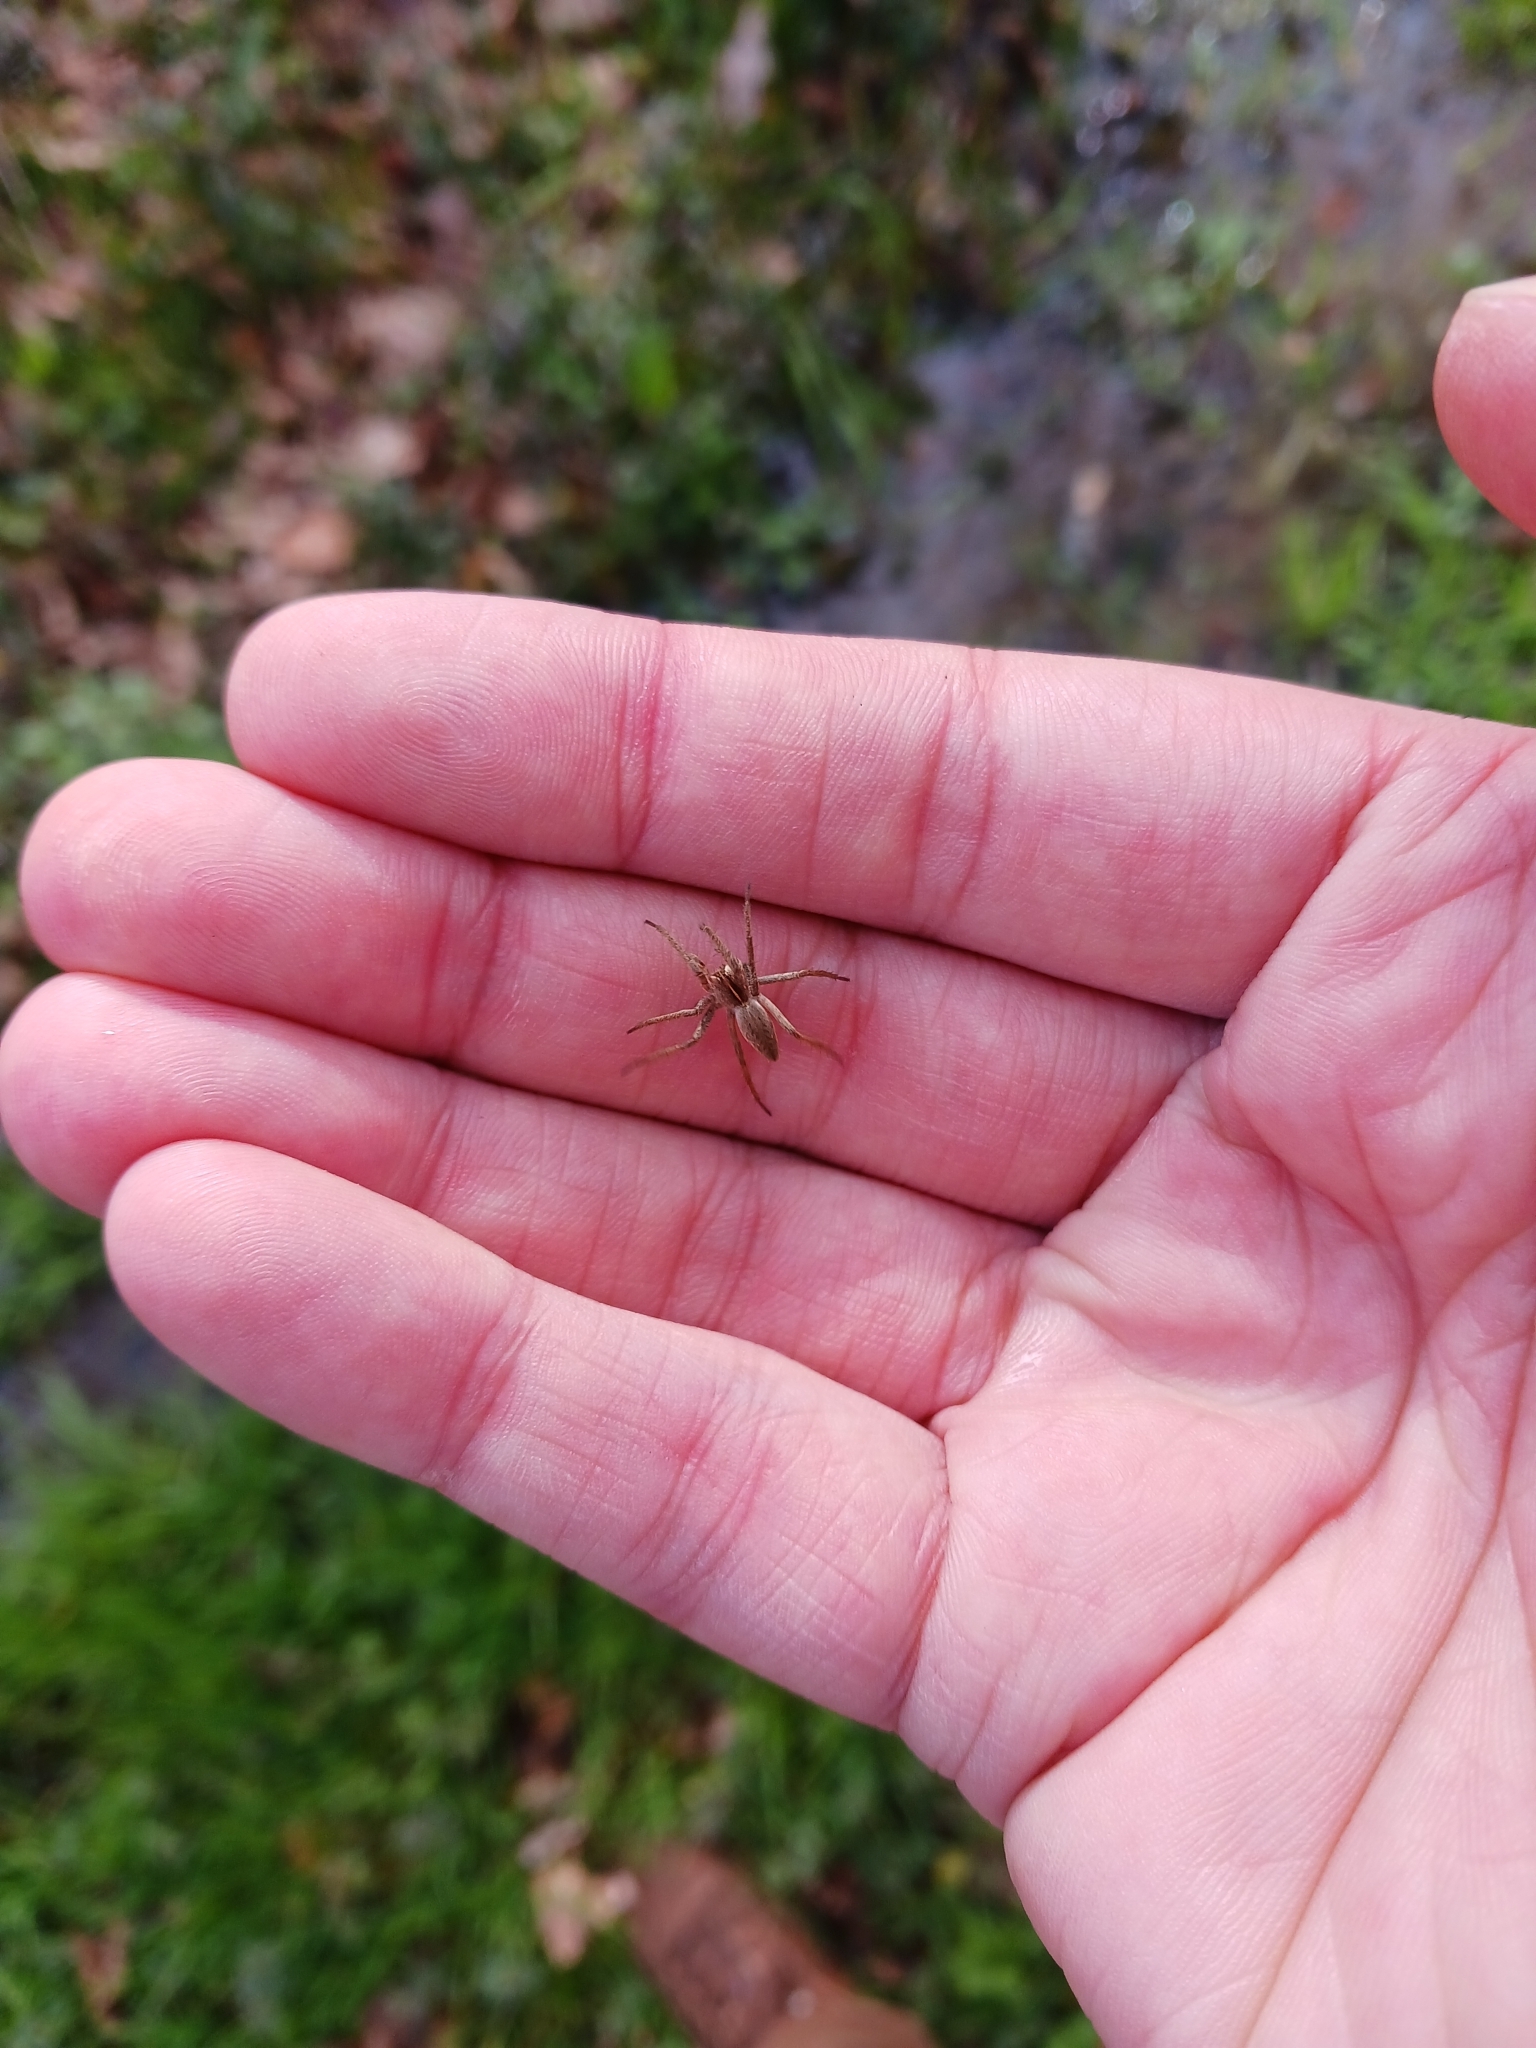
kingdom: Animalia
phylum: Arthropoda
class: Arachnida
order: Araneae
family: Pisauridae
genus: Pisaura
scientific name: Pisaura mirabilis
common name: Tent spider
